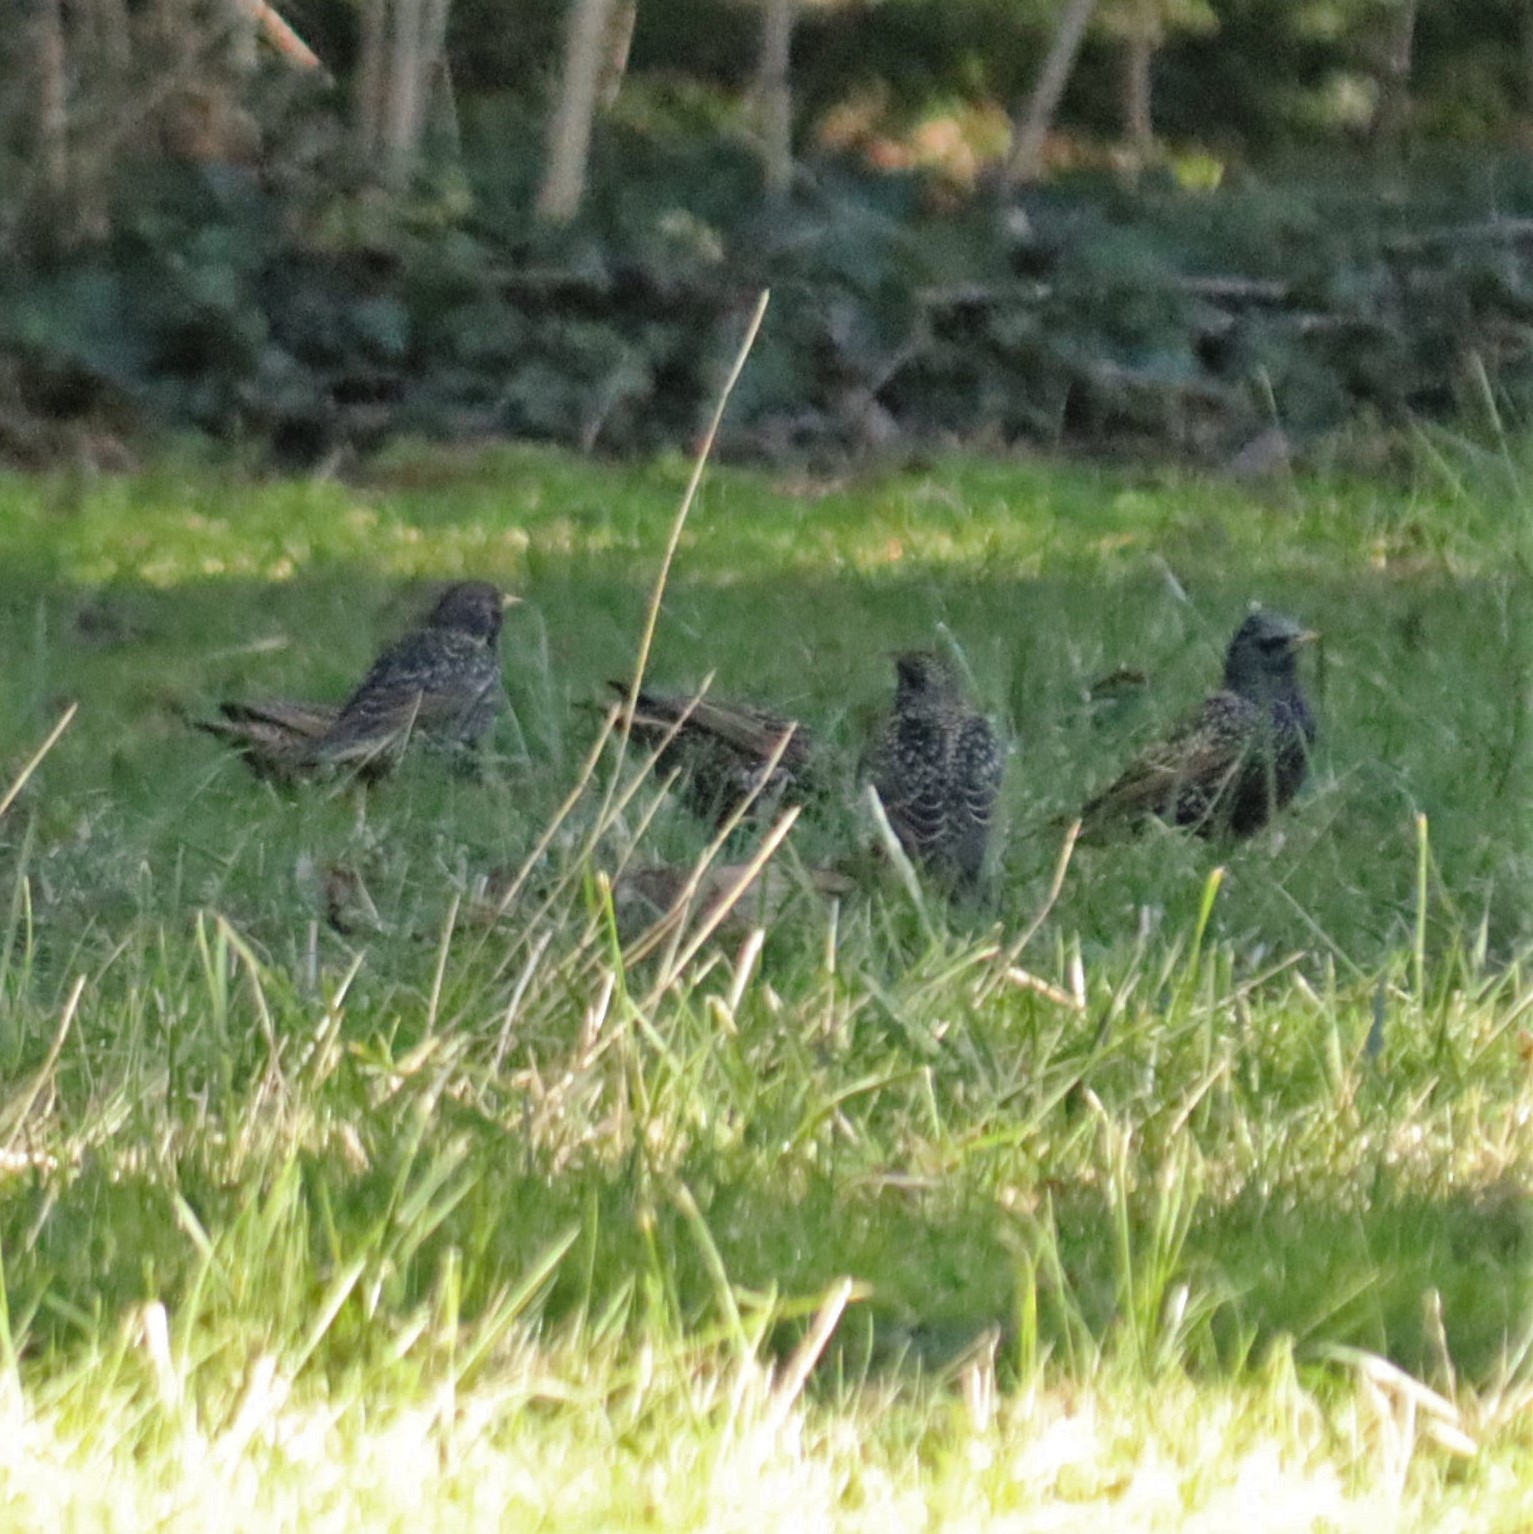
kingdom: Animalia
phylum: Chordata
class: Aves
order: Passeriformes
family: Sturnidae
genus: Sturnus
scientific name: Sturnus vulgaris
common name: Common starling
